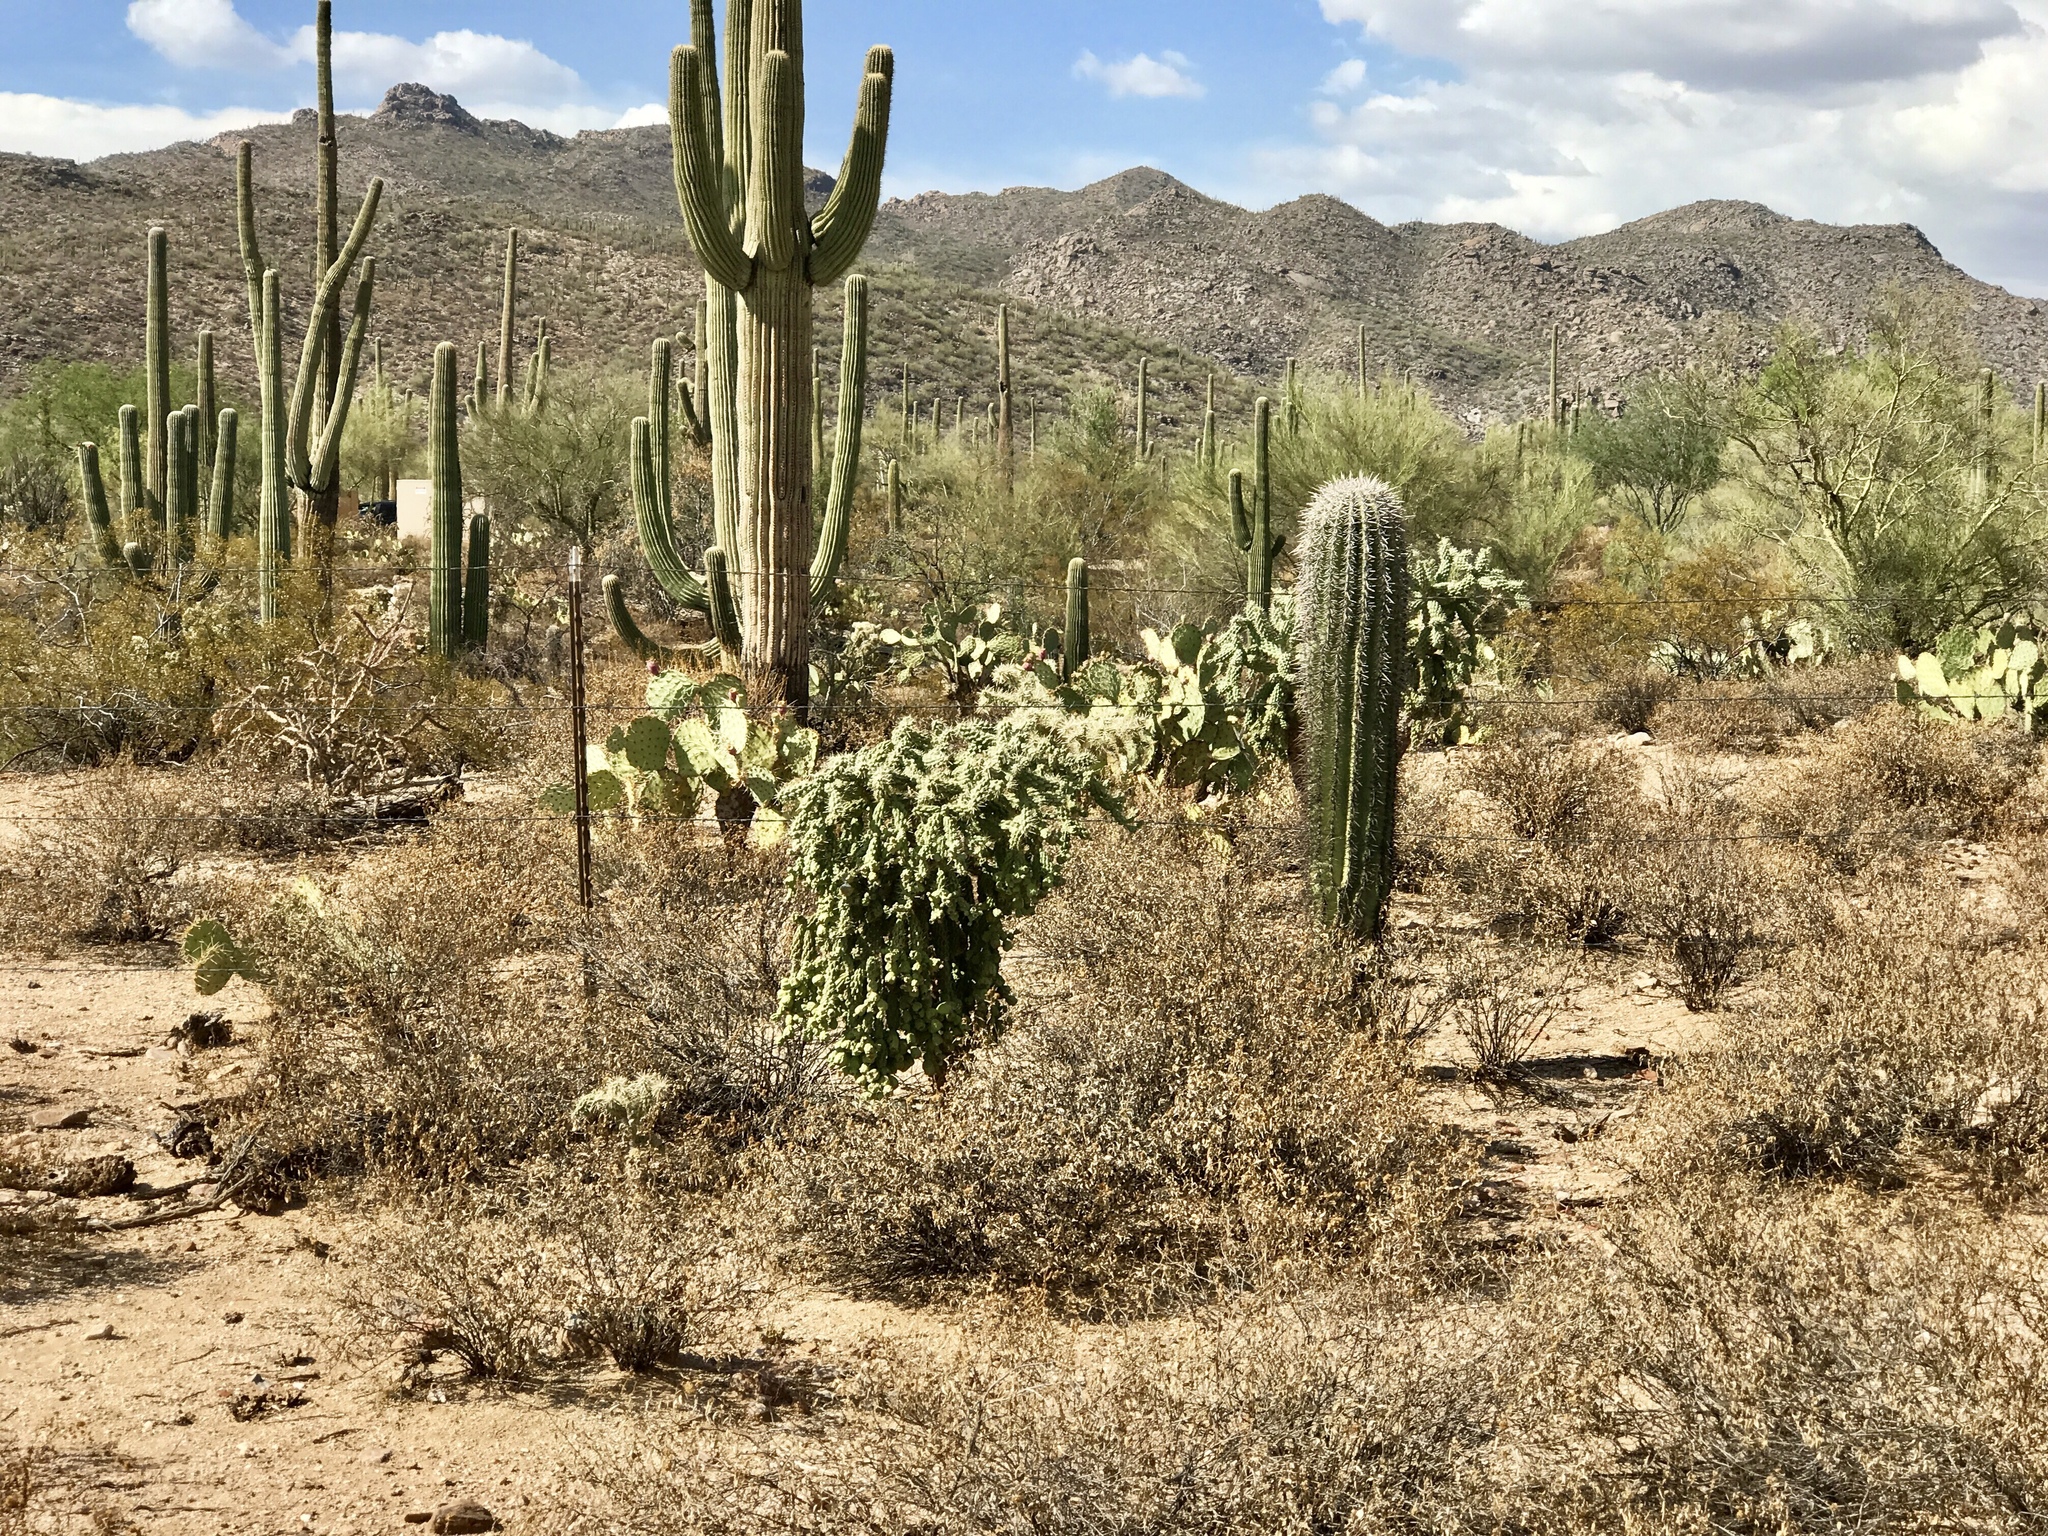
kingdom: Plantae
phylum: Tracheophyta
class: Magnoliopsida
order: Caryophyllales
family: Cactaceae
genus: Cylindropuntia
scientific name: Cylindropuntia fulgida
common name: Jumping cholla
